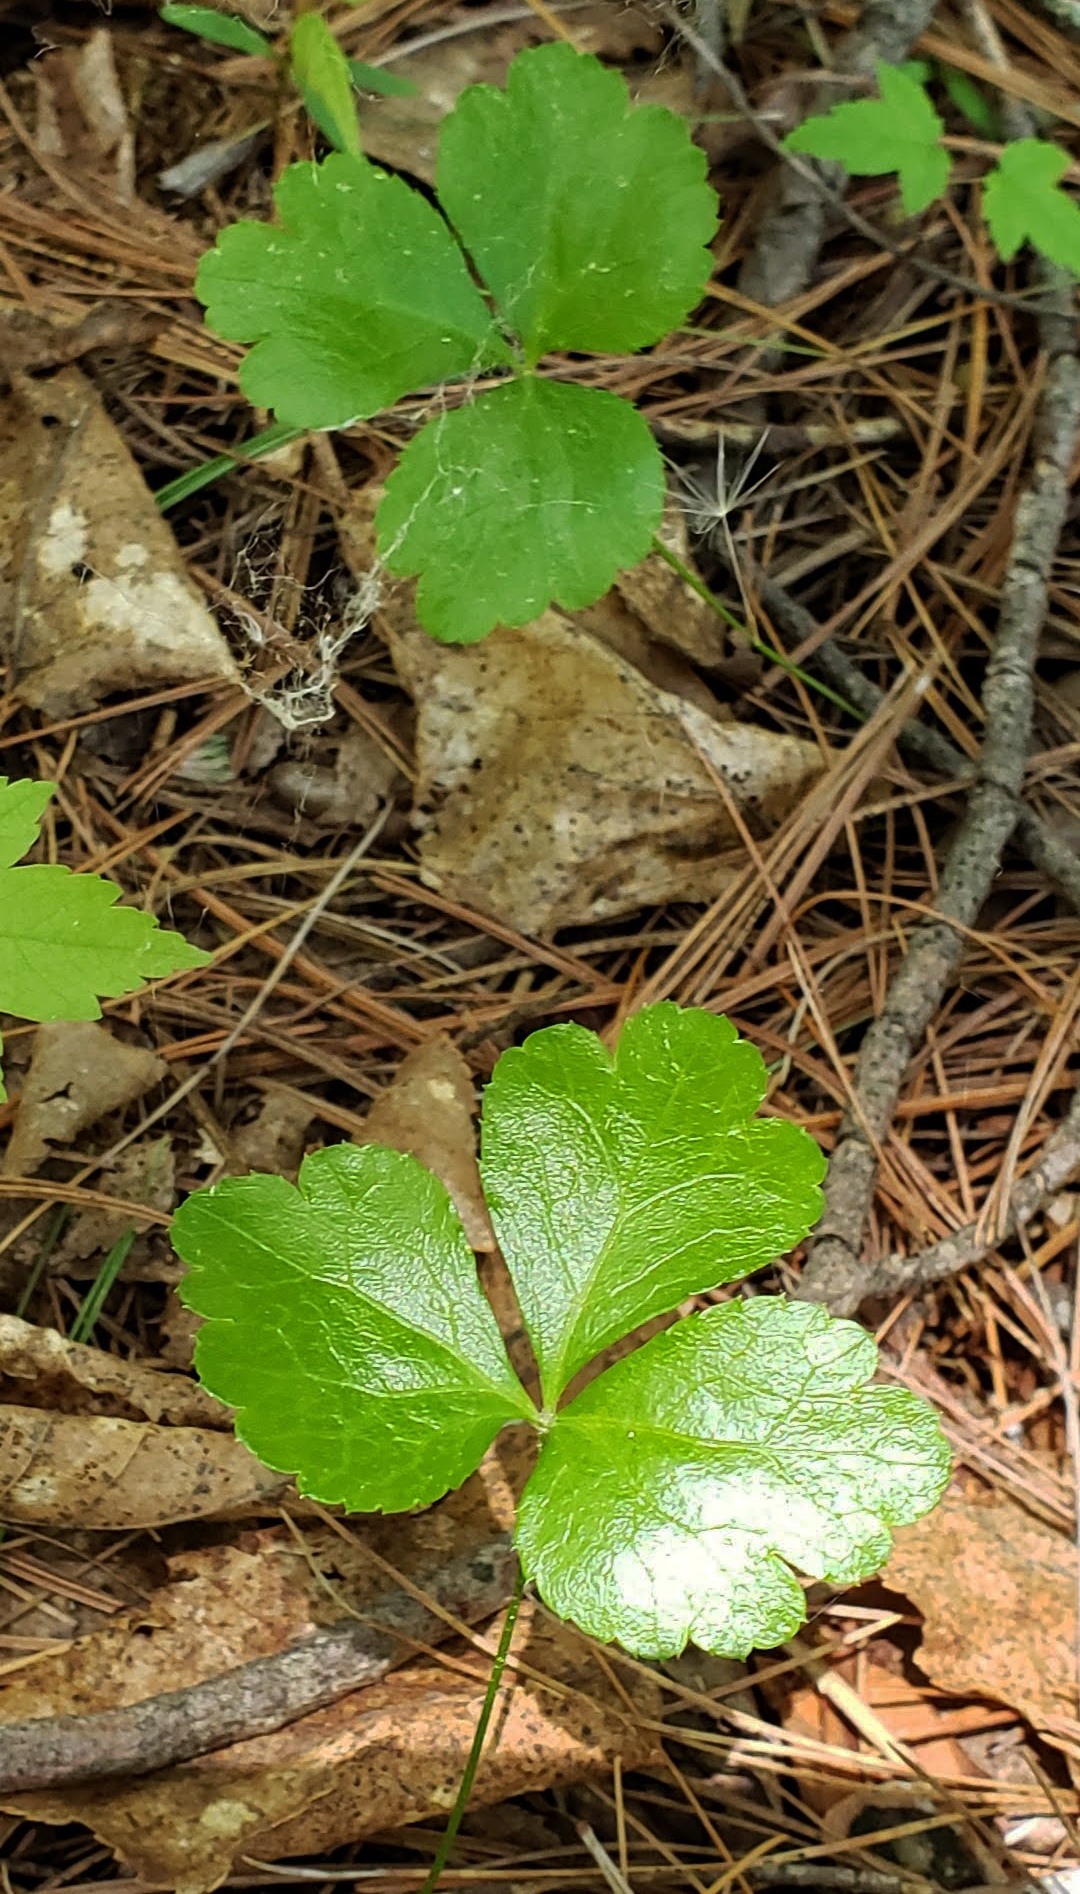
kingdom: Plantae
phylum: Tracheophyta
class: Magnoliopsida
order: Ranunculales
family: Ranunculaceae
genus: Coptis
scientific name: Coptis trifolia
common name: Canker-root
